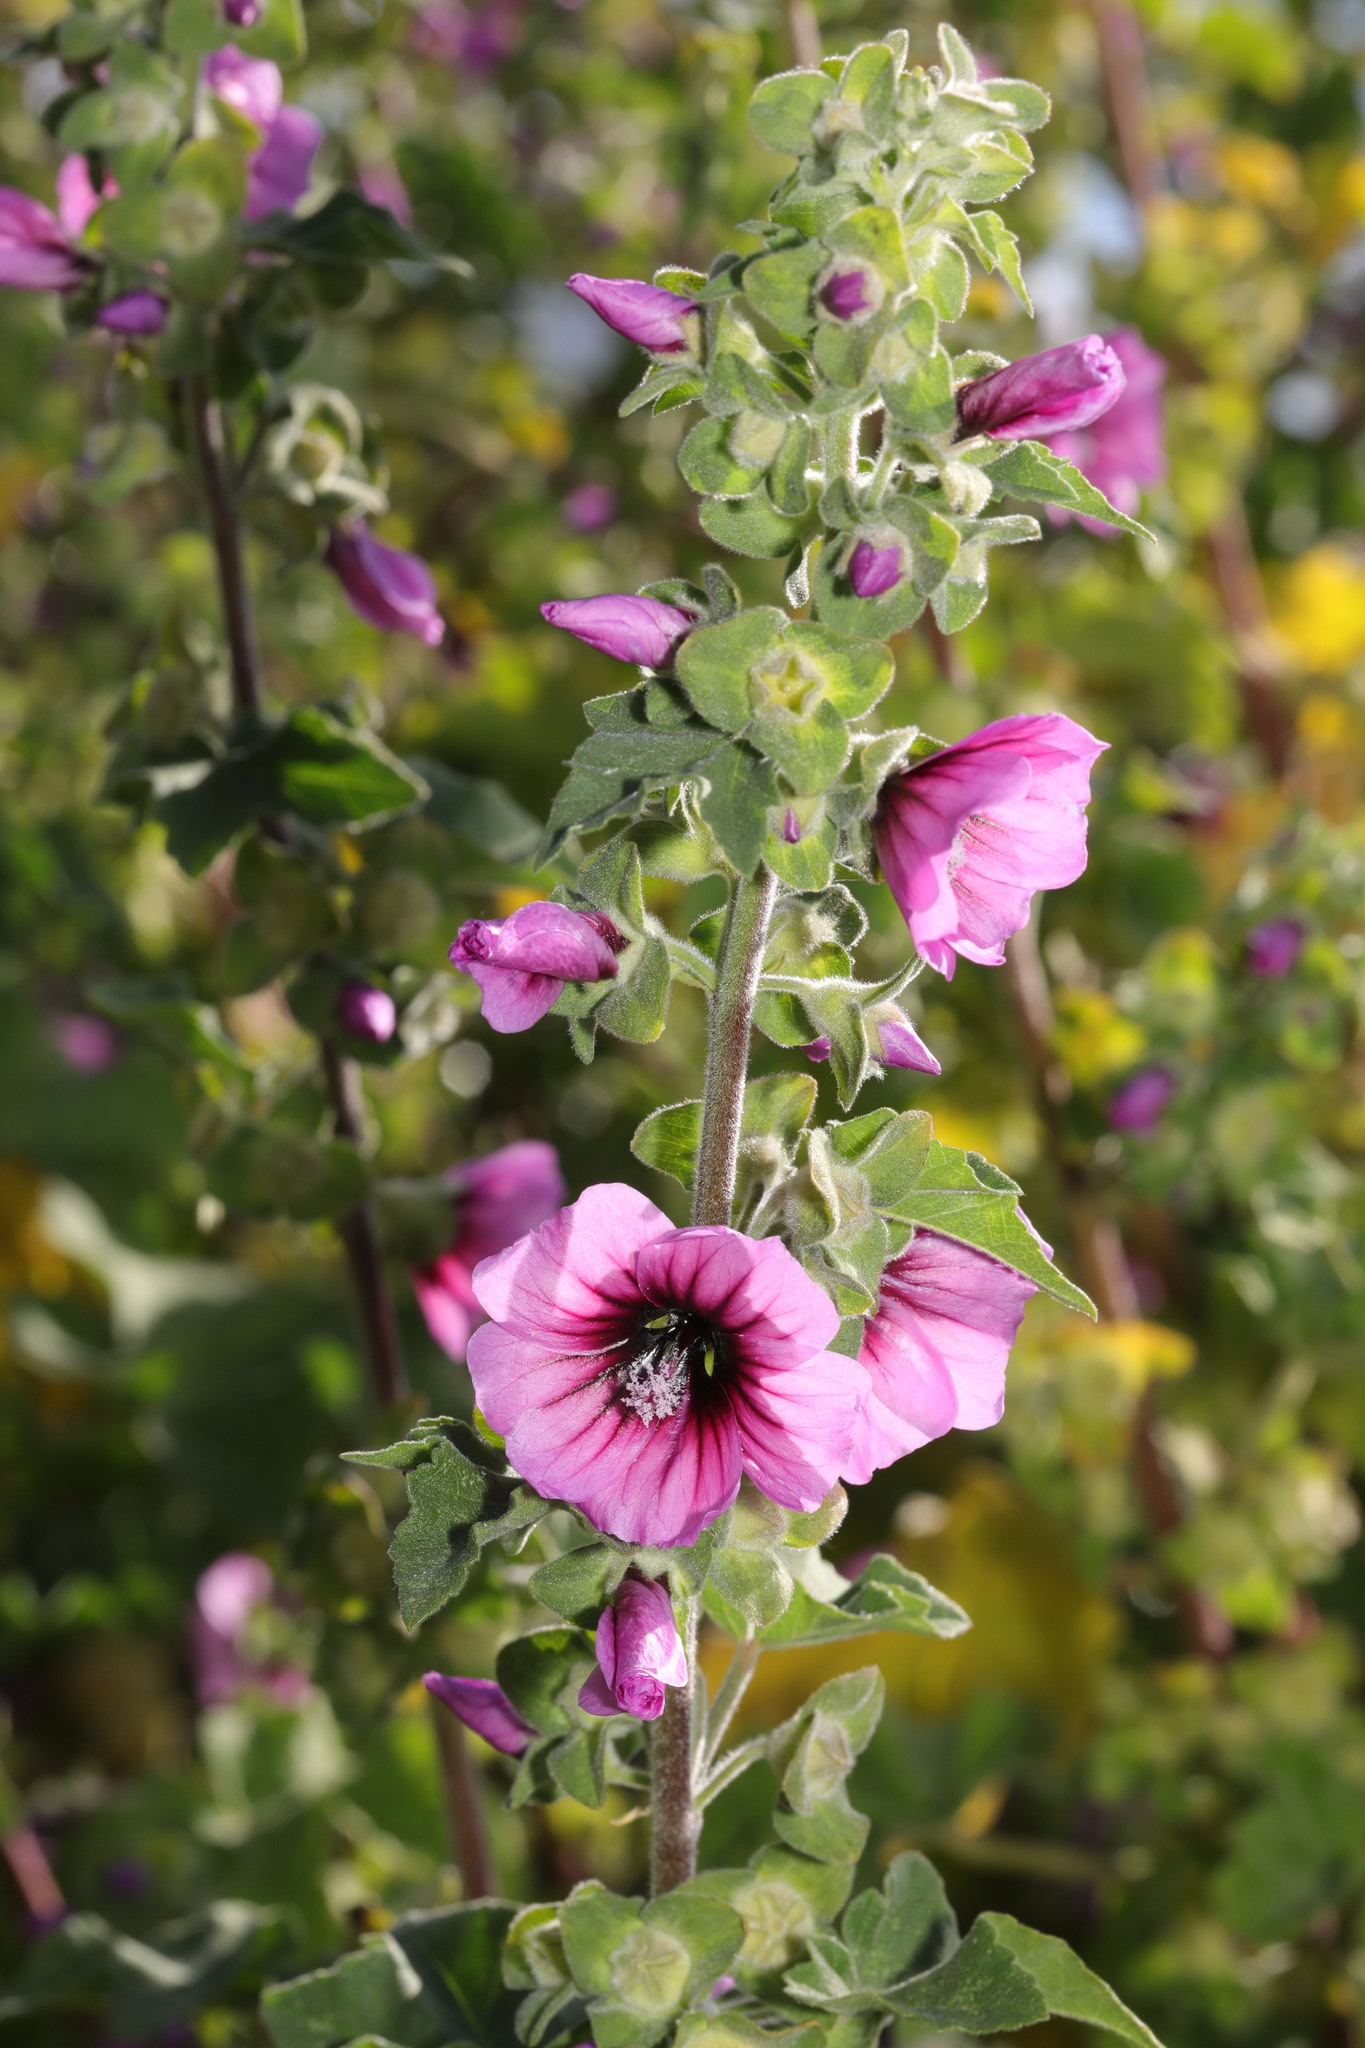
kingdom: Plantae
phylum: Tracheophyta
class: Magnoliopsida
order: Malvales
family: Malvaceae
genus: Malva
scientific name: Malva arborea
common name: Tree mallow
